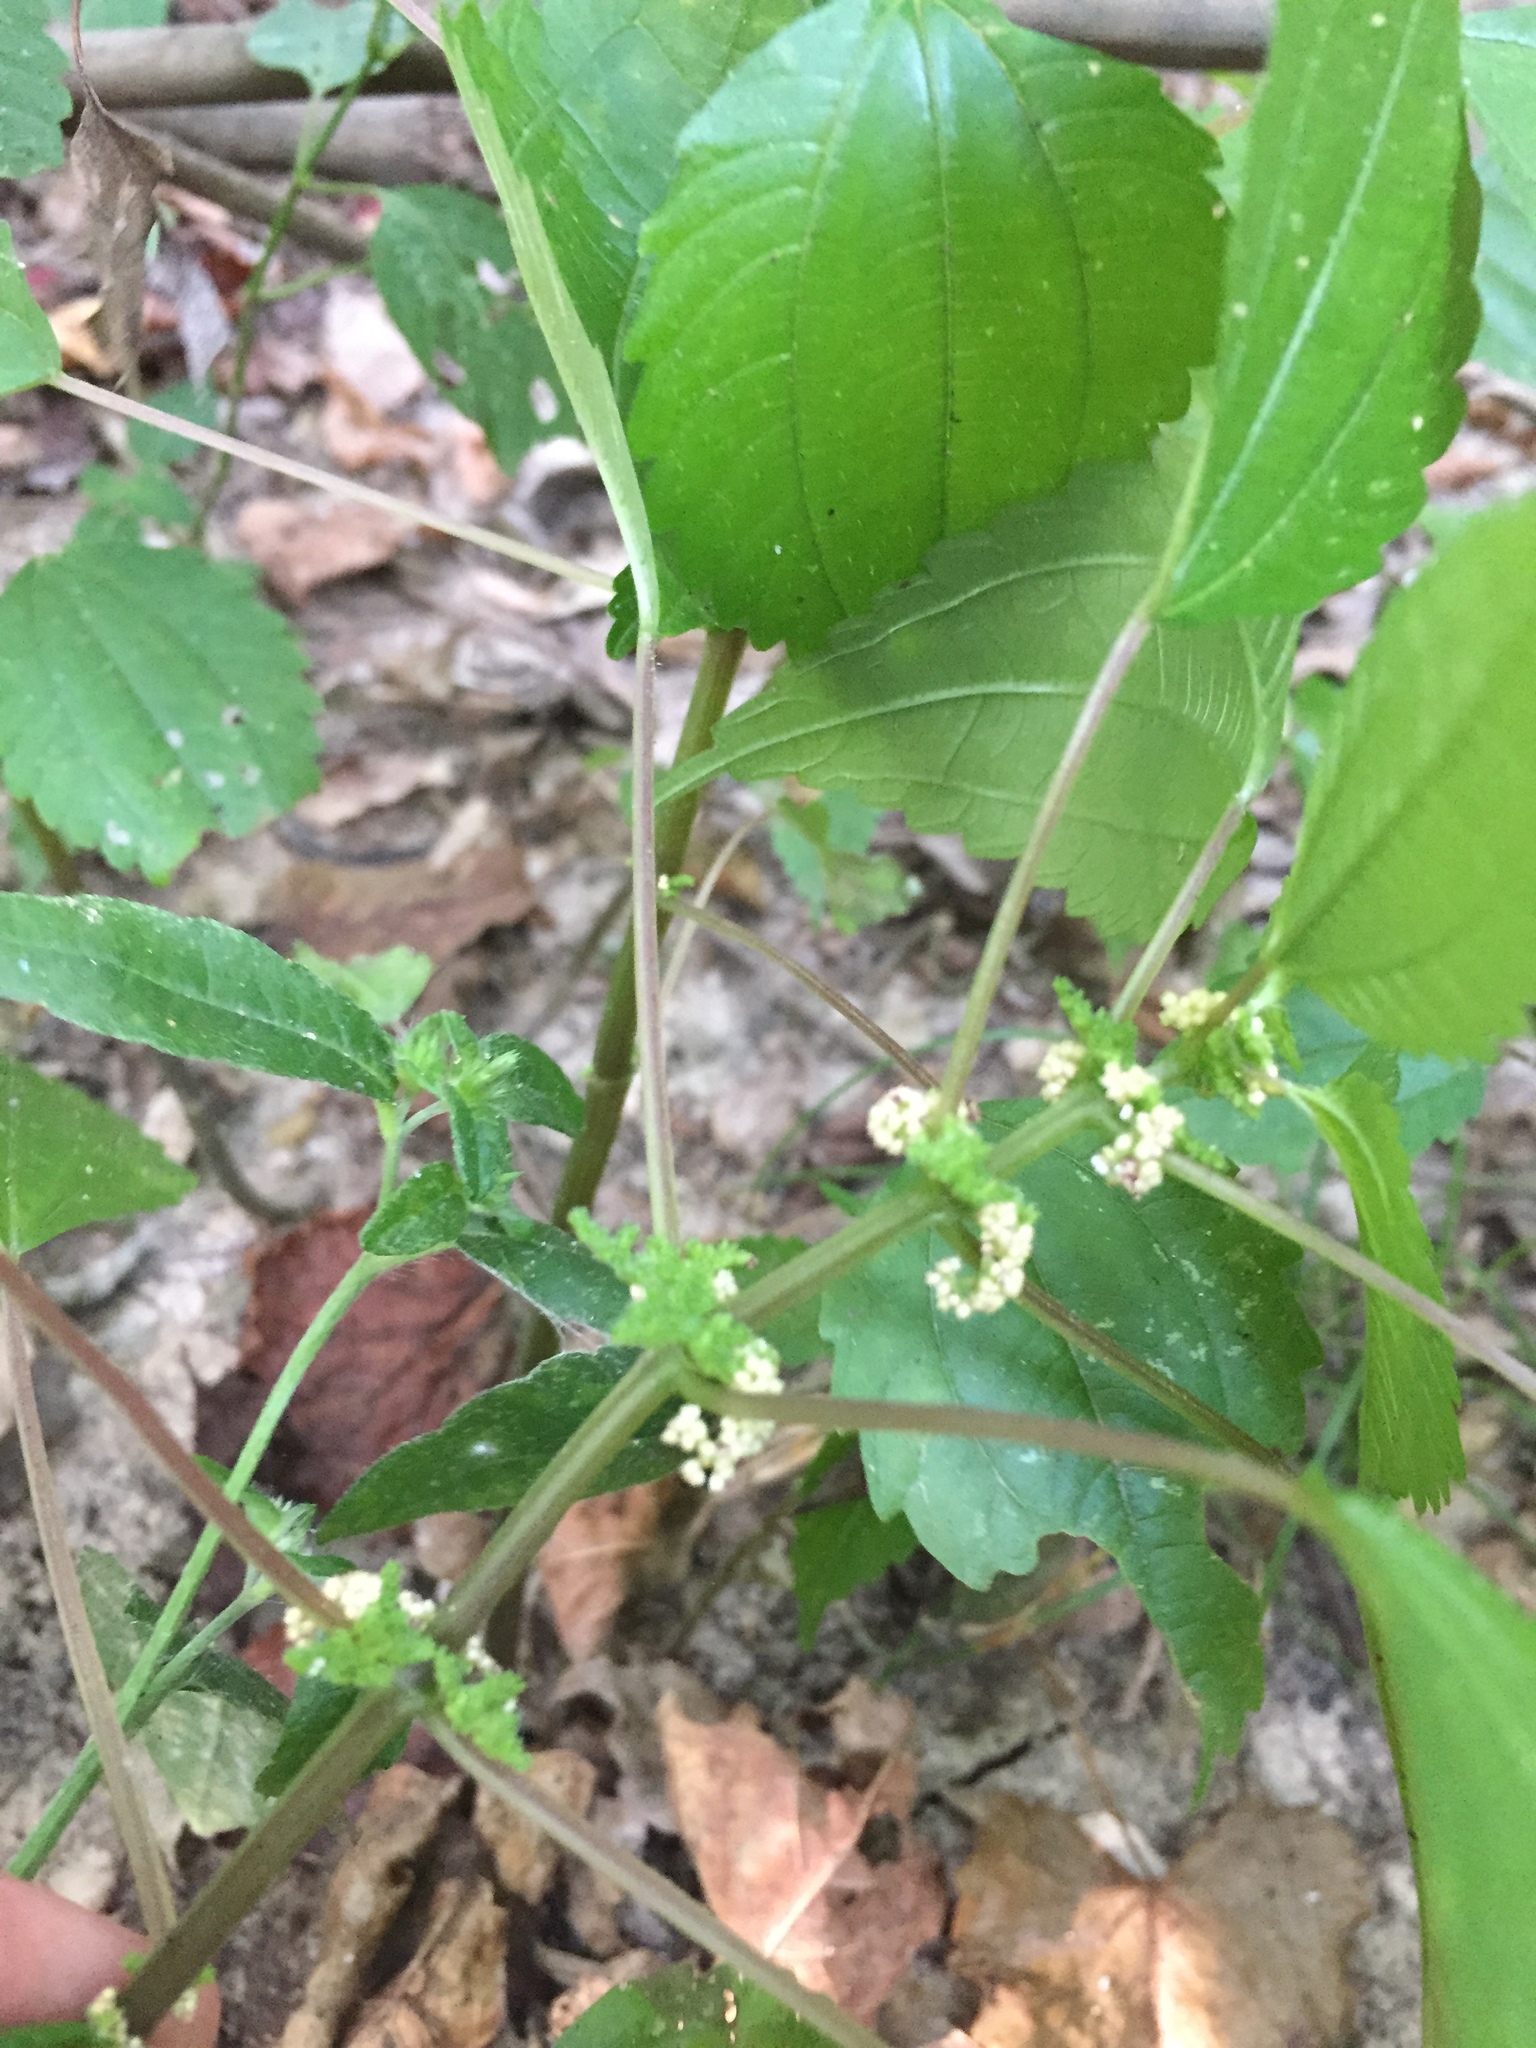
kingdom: Plantae
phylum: Tracheophyta
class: Magnoliopsida
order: Rosales
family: Urticaceae
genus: Pilea
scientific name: Pilea pumila
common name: Clearweed
